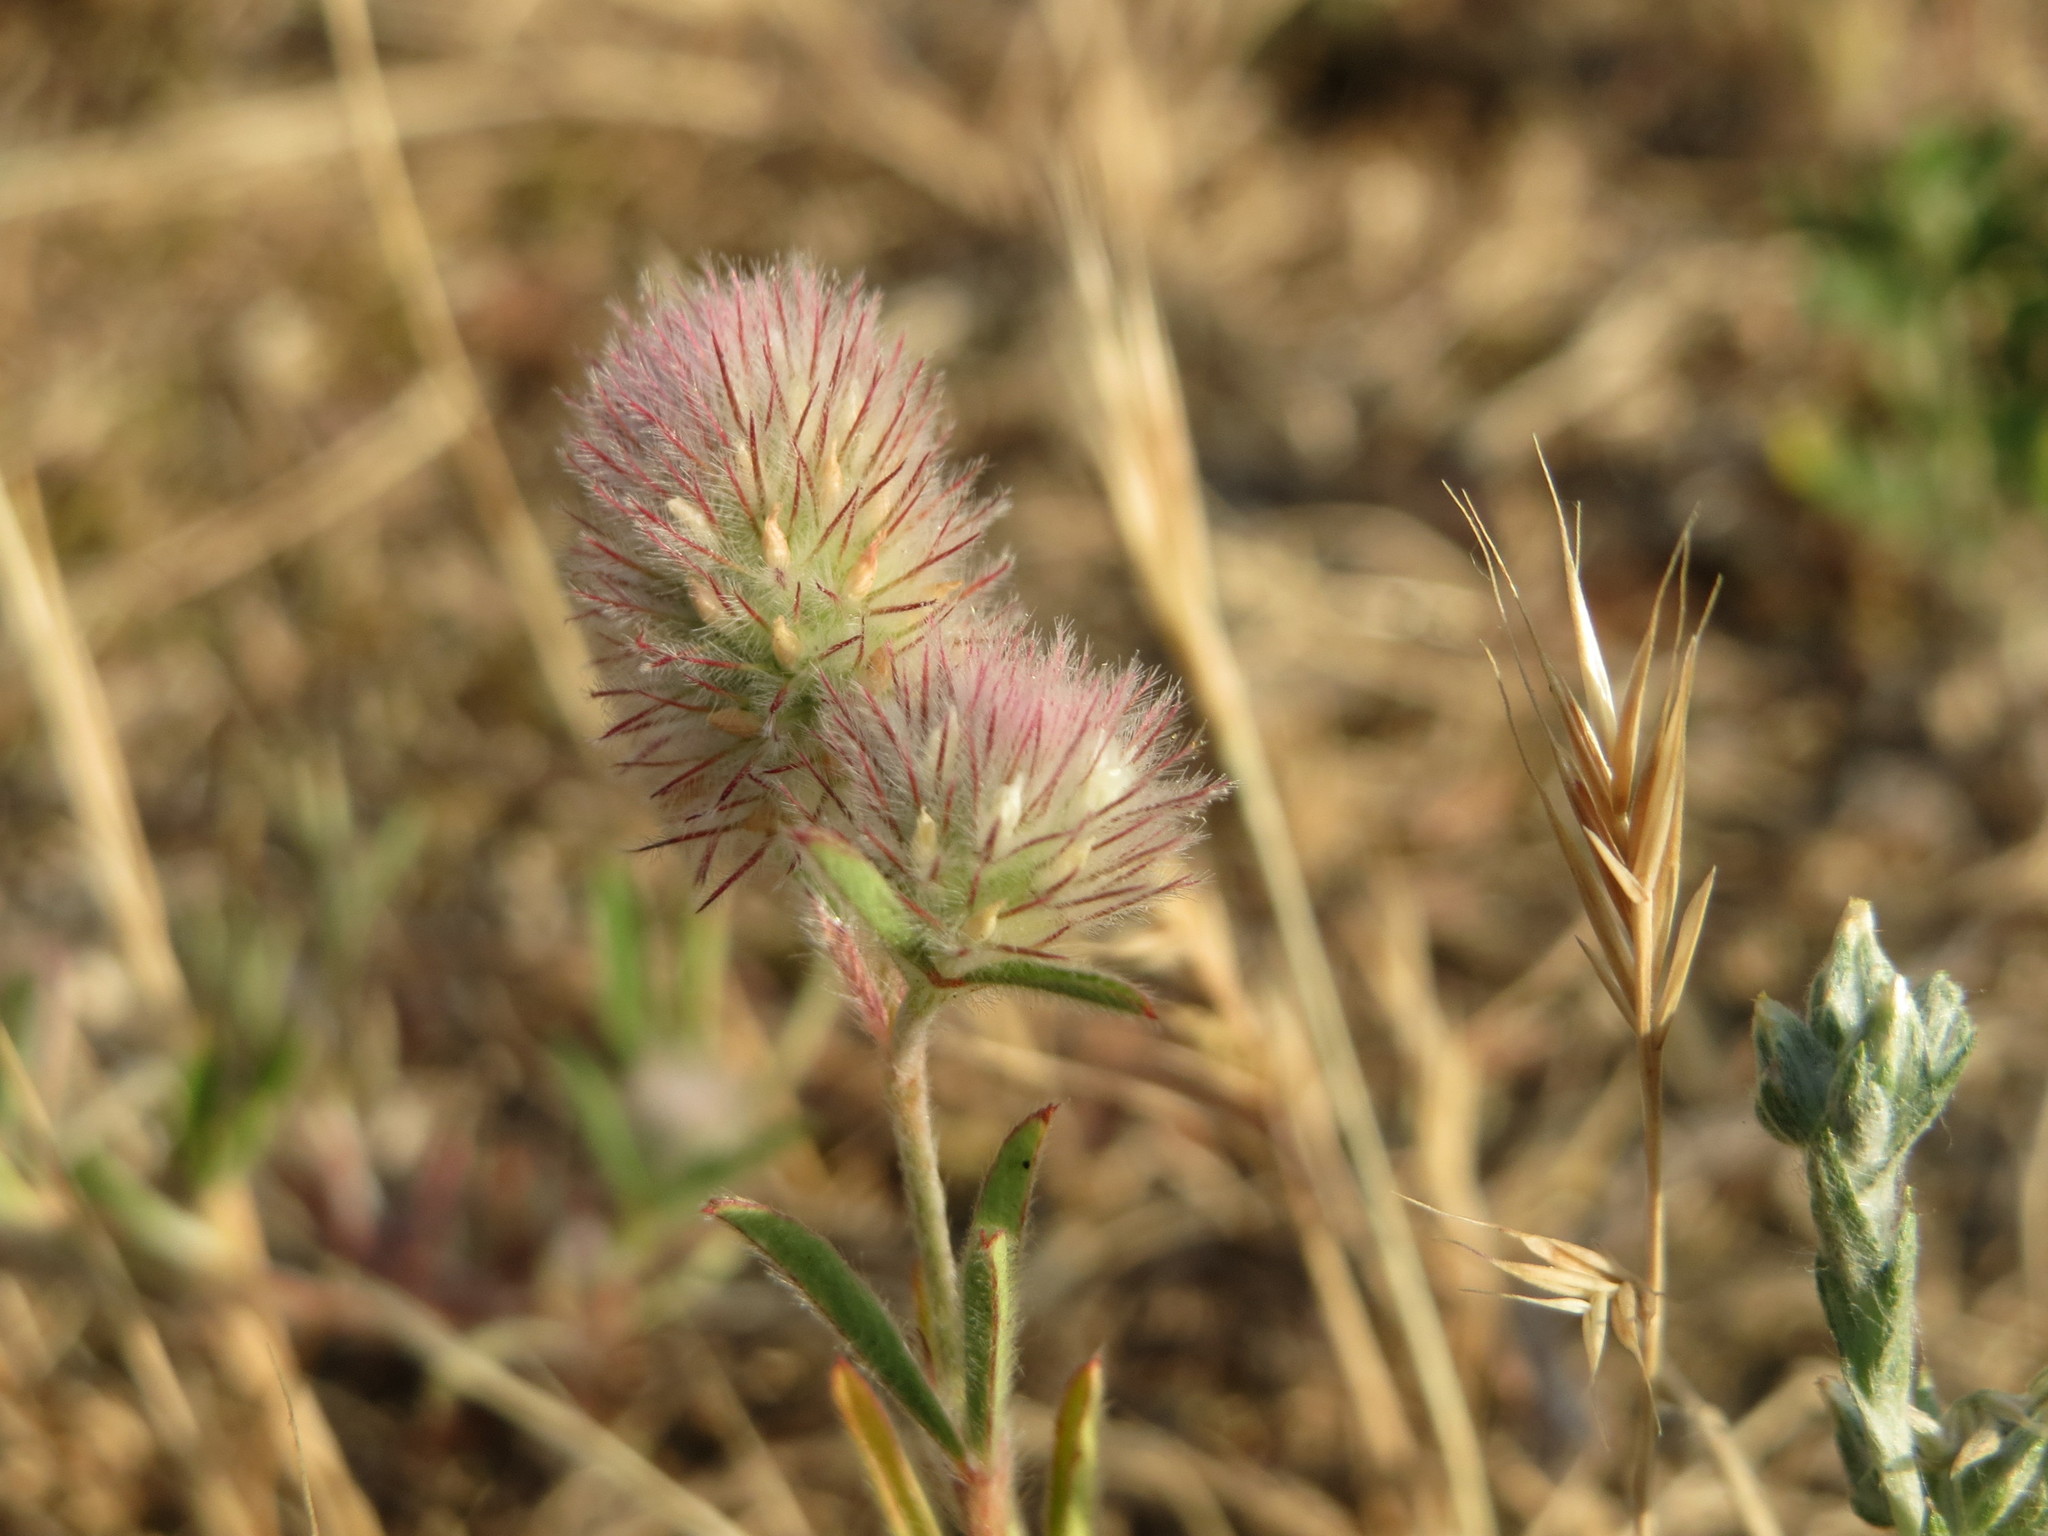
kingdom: Plantae
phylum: Tracheophyta
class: Magnoliopsida
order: Fabales
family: Fabaceae
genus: Trifolium
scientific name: Trifolium arvense
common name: Hare's-foot clover
